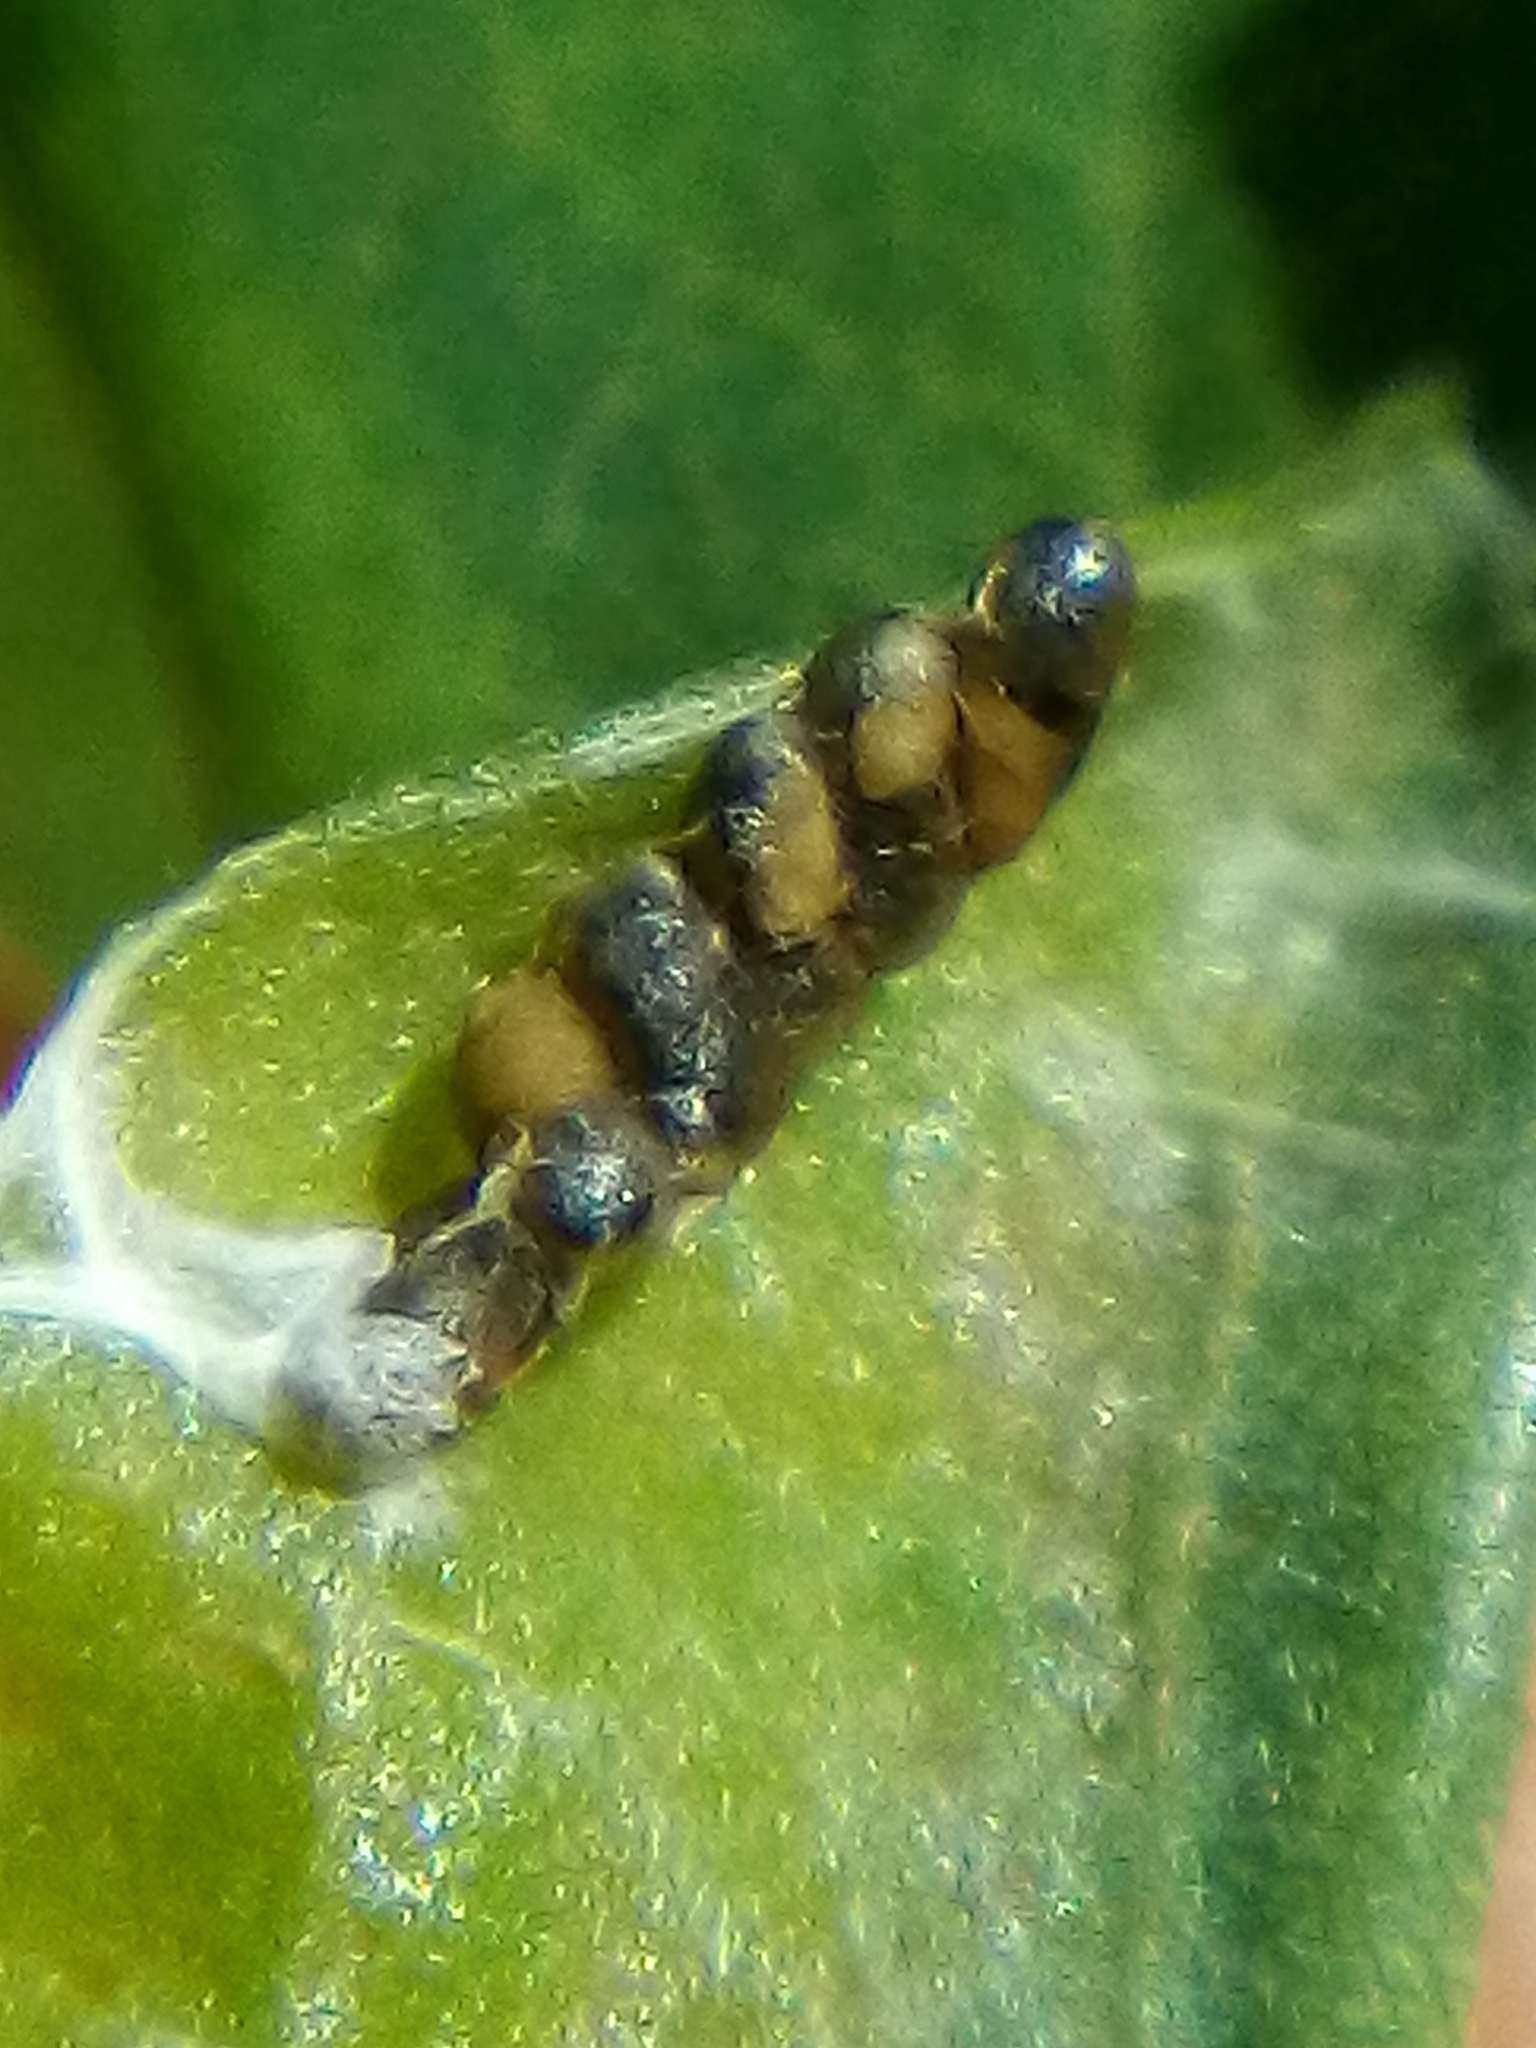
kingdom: Animalia
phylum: Arthropoda
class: Insecta
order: Hymenoptera
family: Platygastridae
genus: Platygaster
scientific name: Platygaster robiniae
